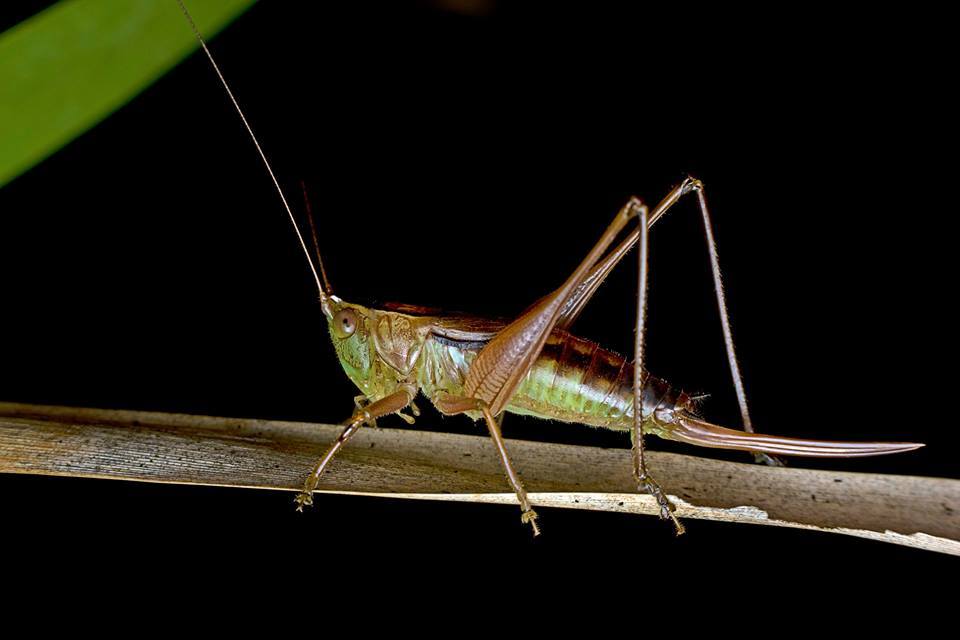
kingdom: Animalia
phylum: Arthropoda
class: Insecta
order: Orthoptera
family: Tettigoniidae
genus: Conocephalus
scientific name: Conocephalus semivittatus
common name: Blackish meadow katydid
